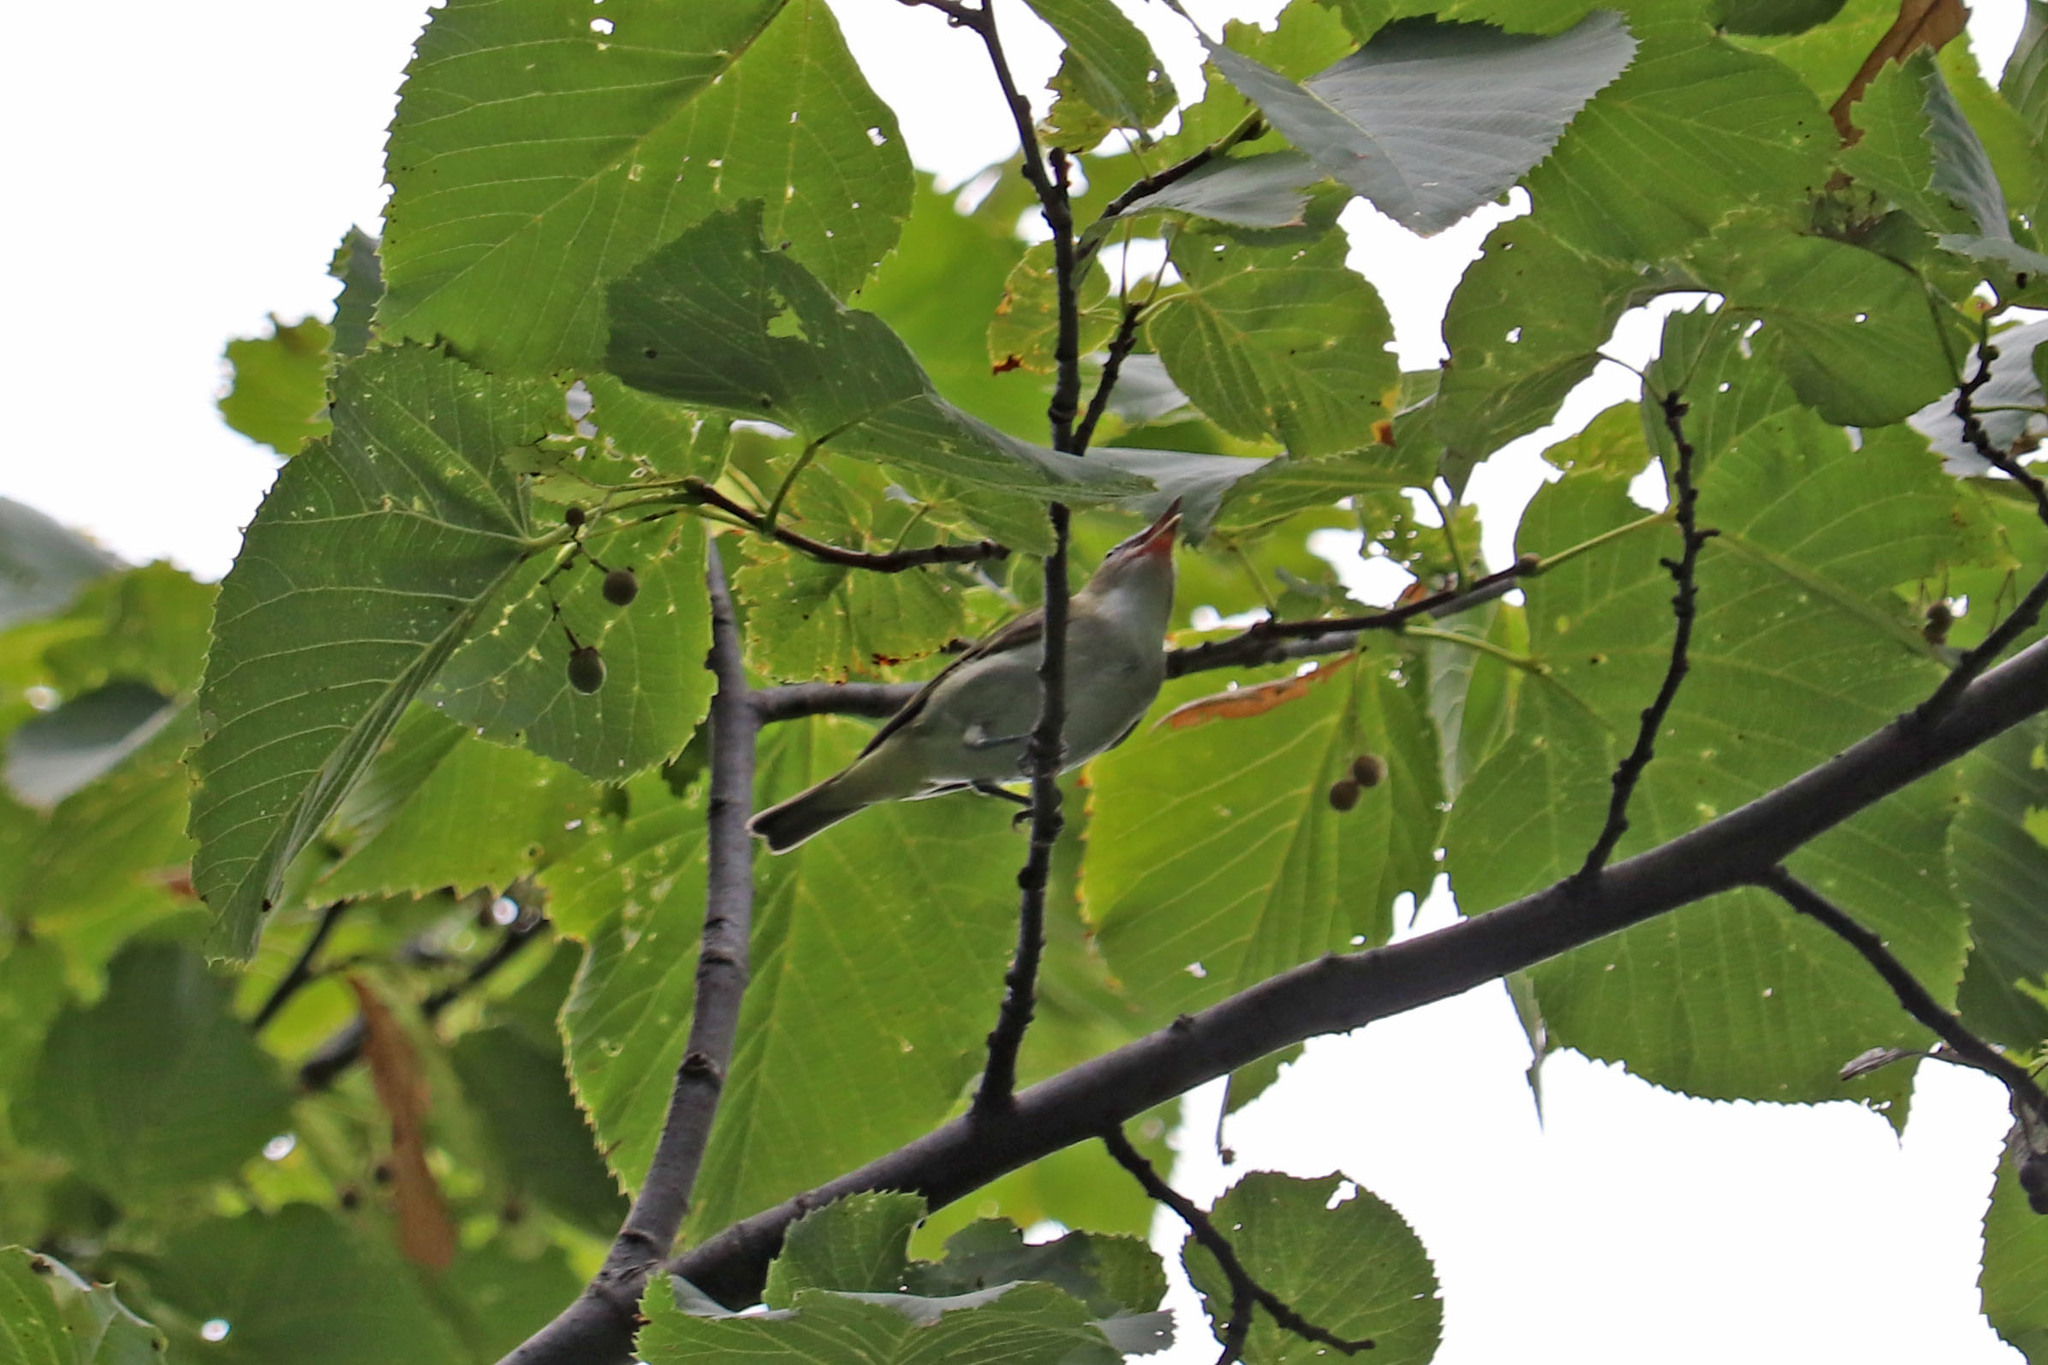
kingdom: Animalia
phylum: Chordata
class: Aves
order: Passeriformes
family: Vireonidae
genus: Vireo
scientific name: Vireo olivaceus
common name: Red-eyed vireo
